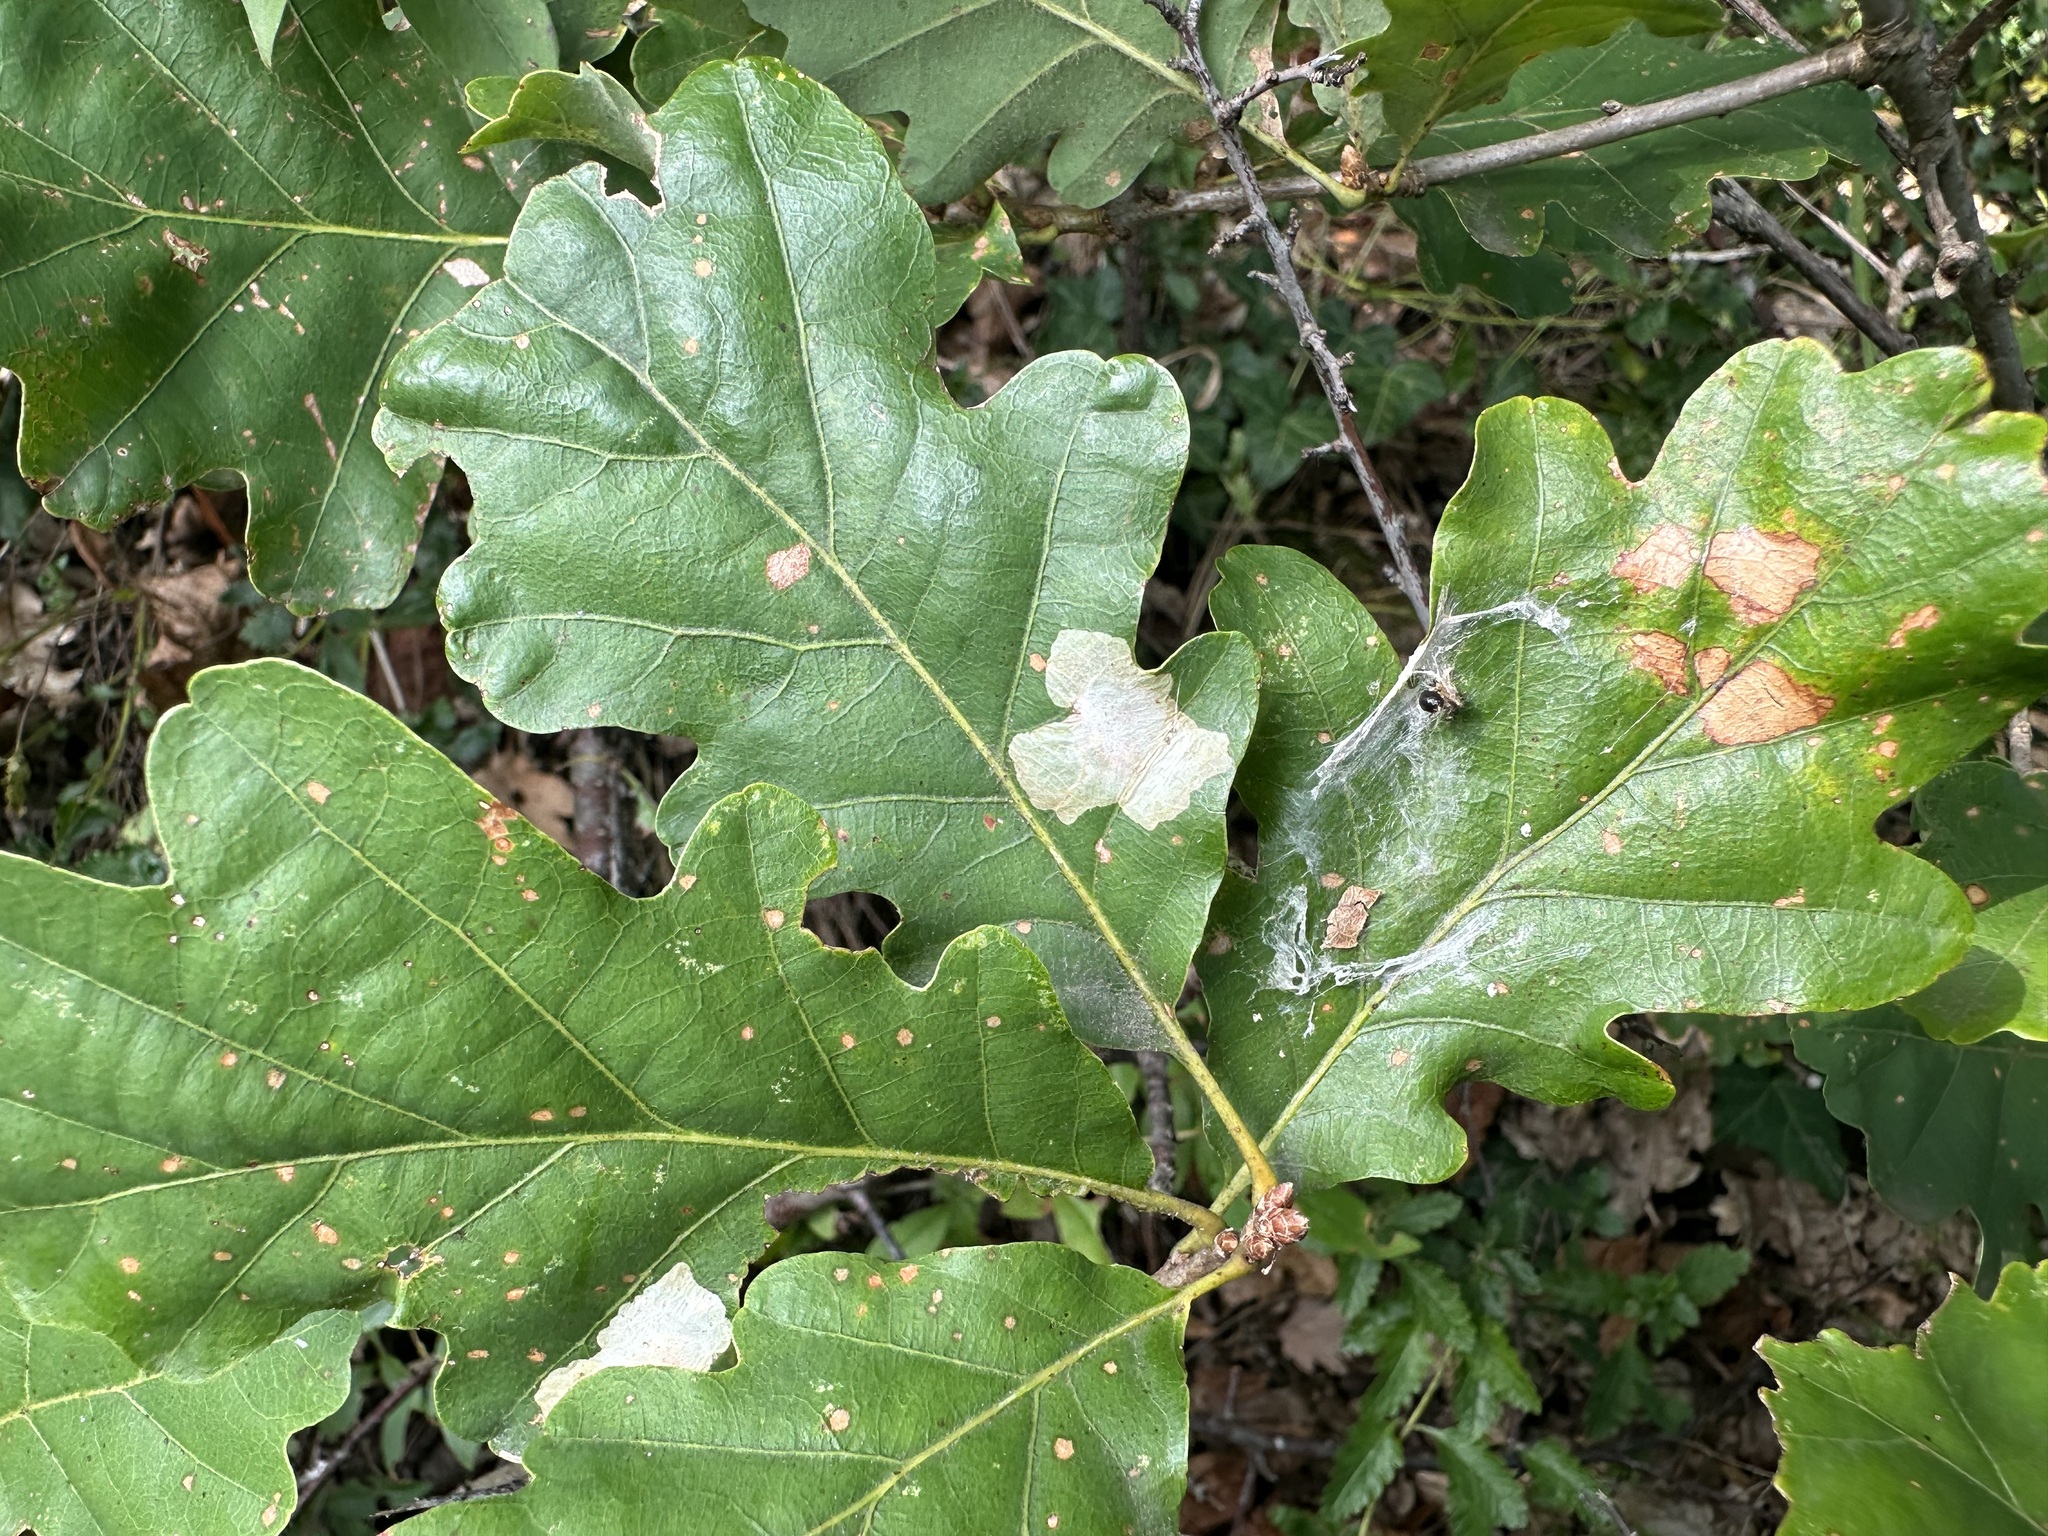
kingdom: Animalia
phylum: Arthropoda
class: Insecta
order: Lepidoptera
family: Tischeriidae
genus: Tischeria
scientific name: Tischeria ekebladella
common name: Oak carl
